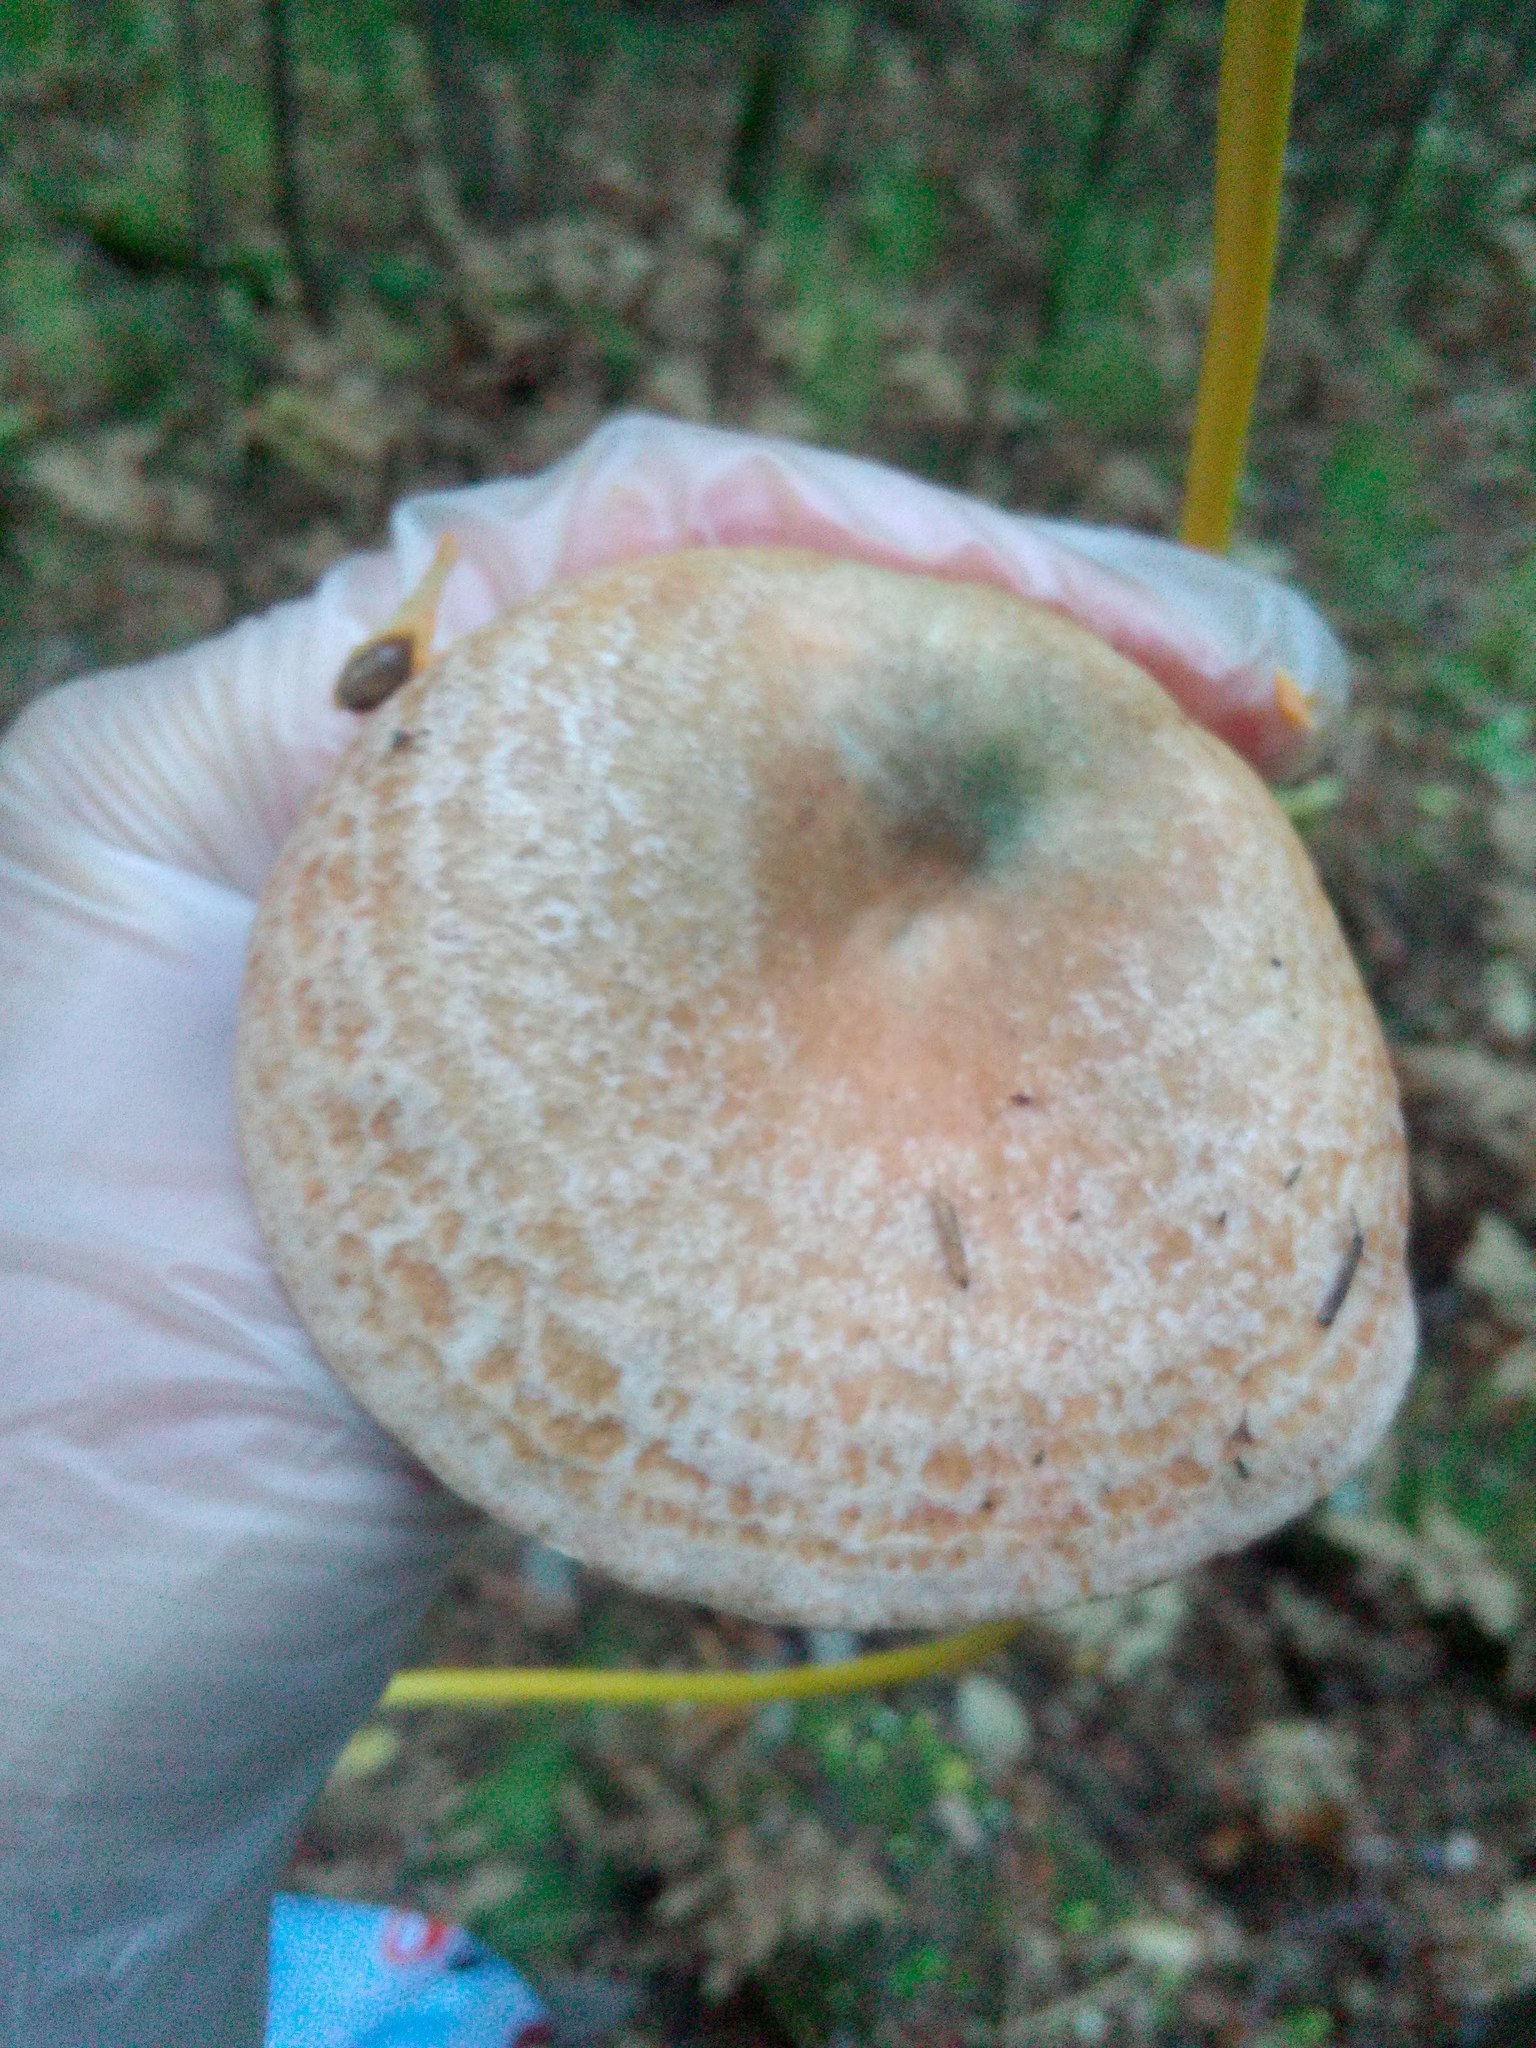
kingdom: Fungi
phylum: Basidiomycota
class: Agaricomycetes
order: Russulales
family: Russulaceae
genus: Lactarius
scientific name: Lactarius deliciosus
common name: Saffron milk-cap
